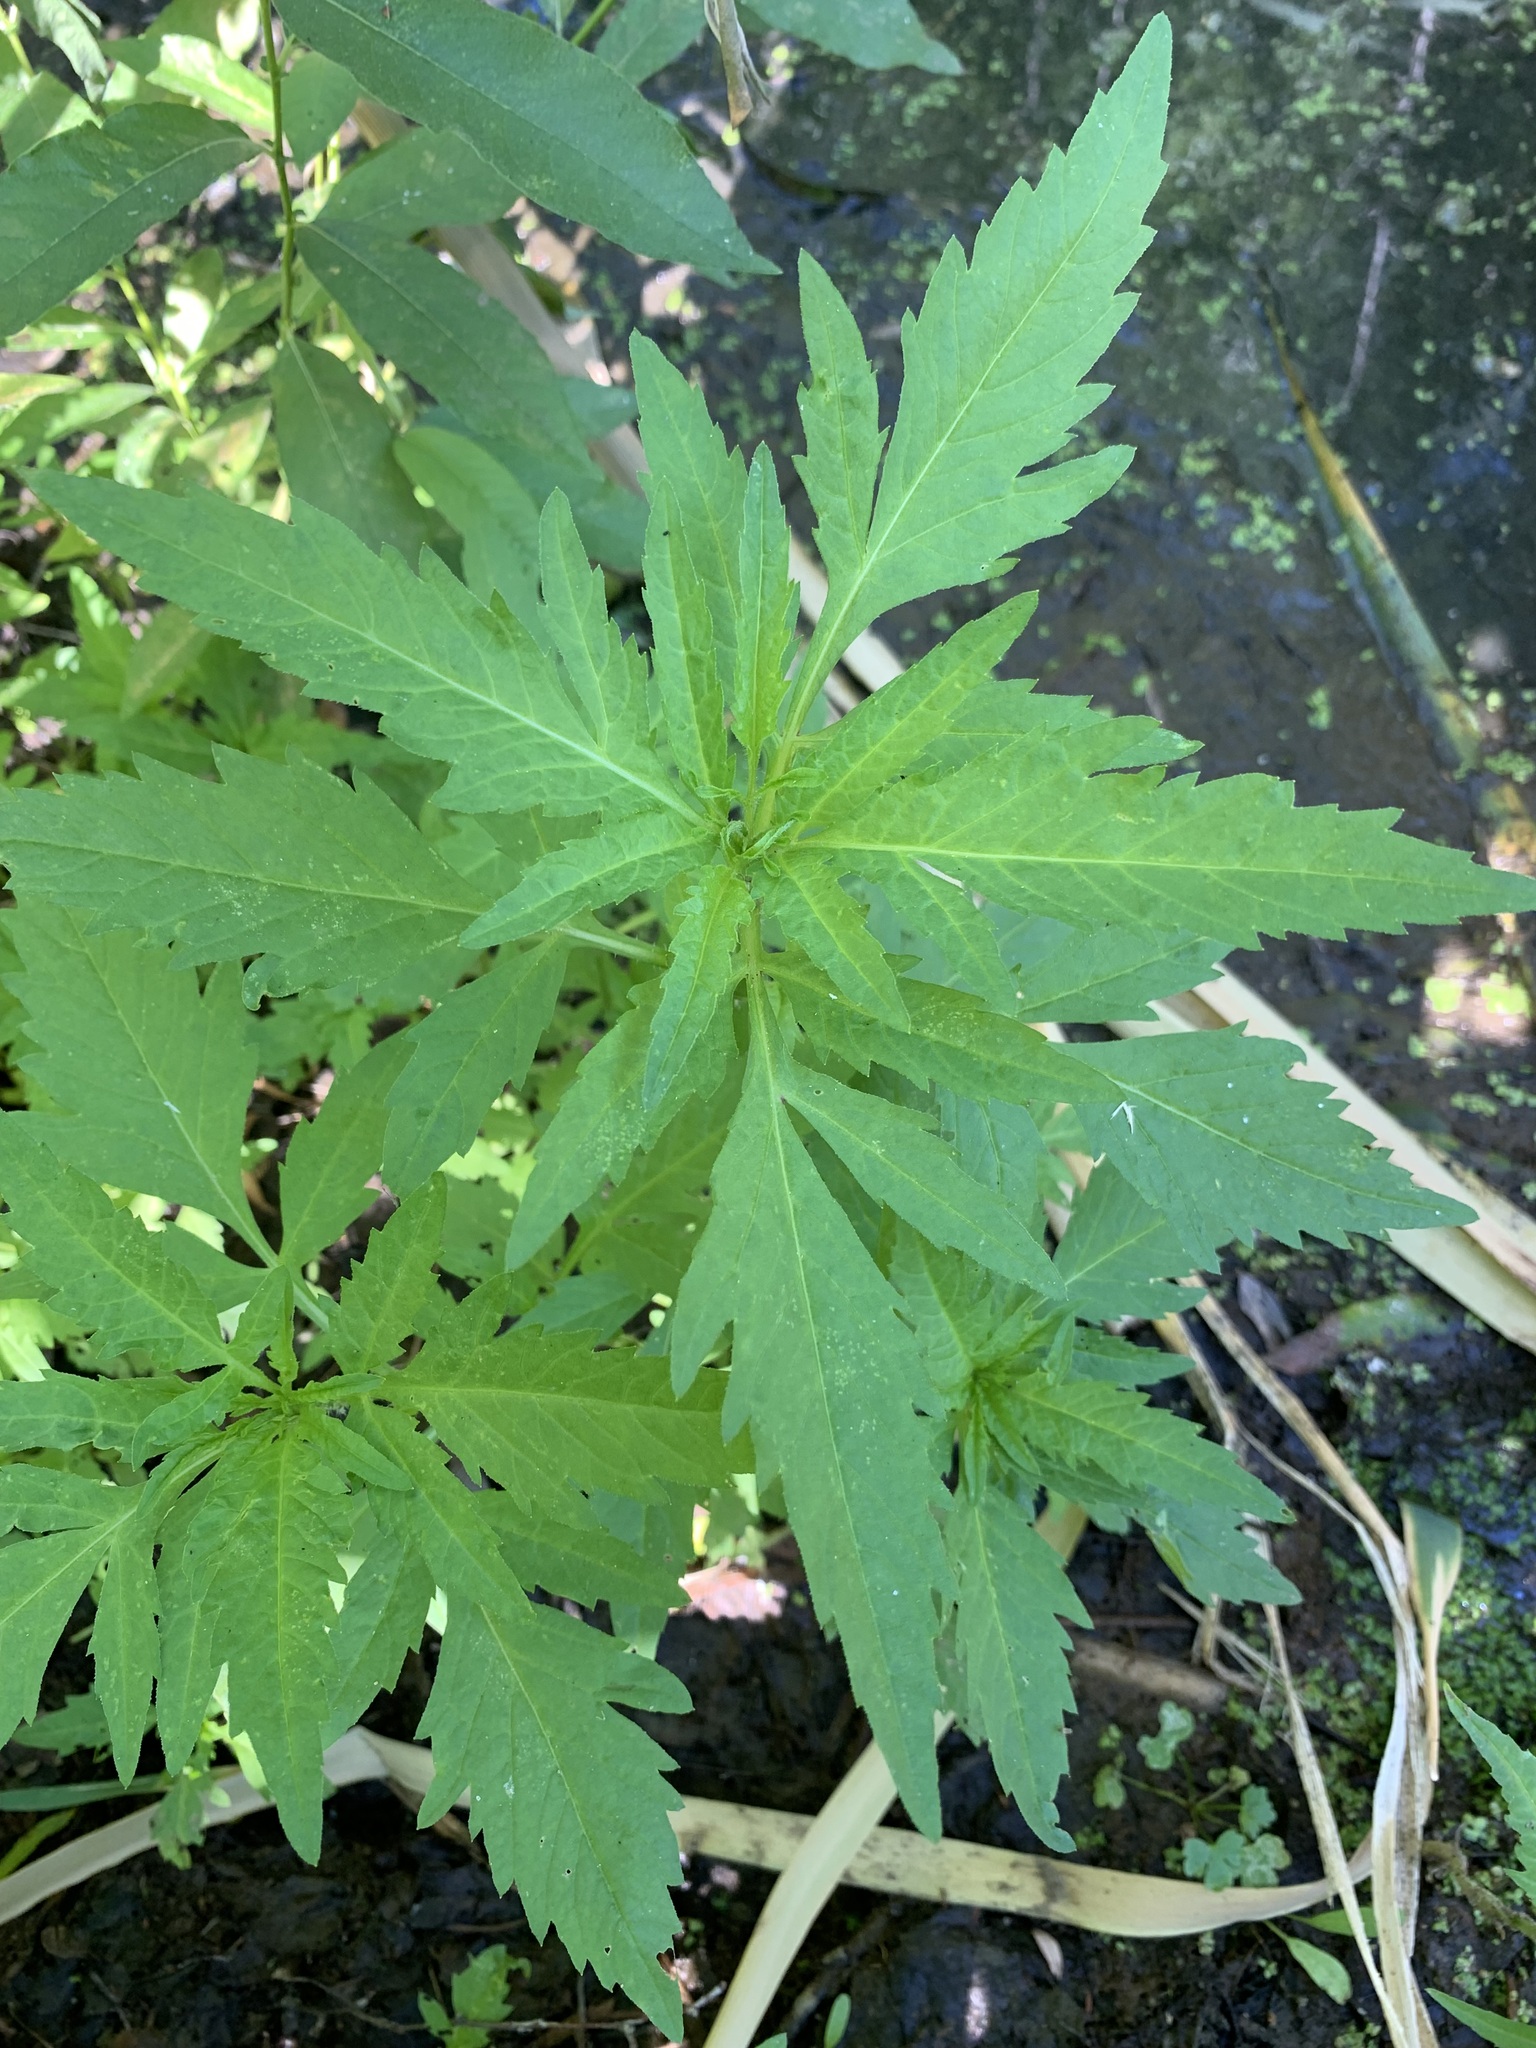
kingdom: Plantae
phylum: Tracheophyta
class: Magnoliopsida
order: Asterales
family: Asteraceae
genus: Bidens
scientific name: Bidens tripartita
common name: Trifid bur-marigold
